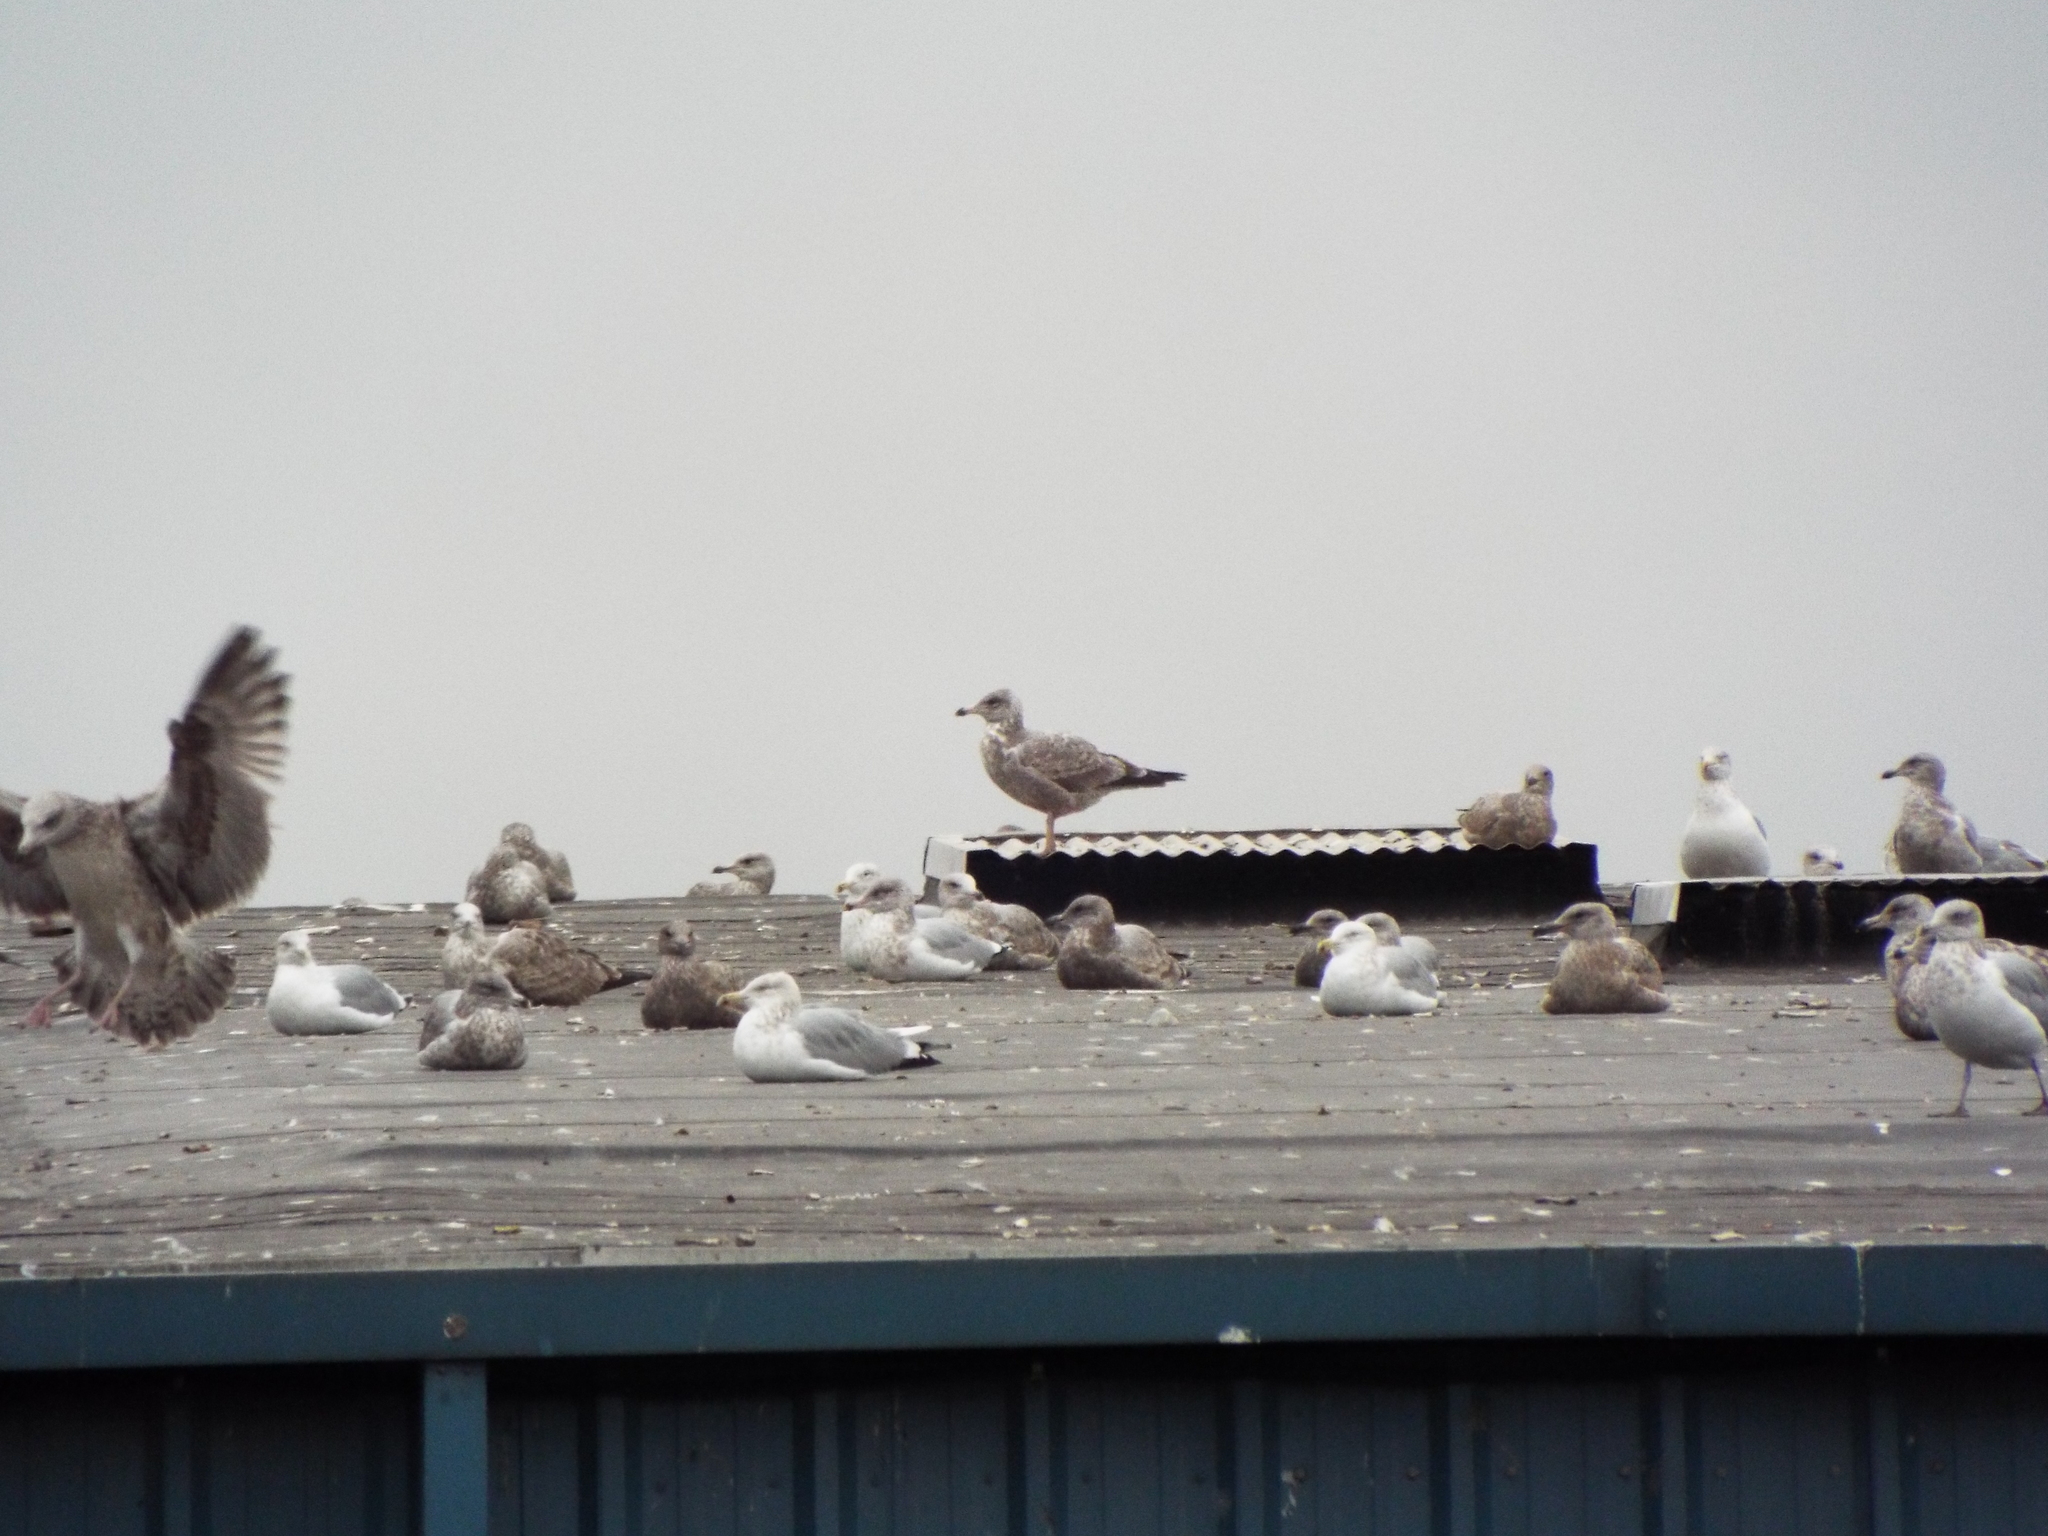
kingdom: Animalia
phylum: Chordata
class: Aves
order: Charadriiformes
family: Laridae
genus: Larus
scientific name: Larus argentatus
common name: Herring gull
